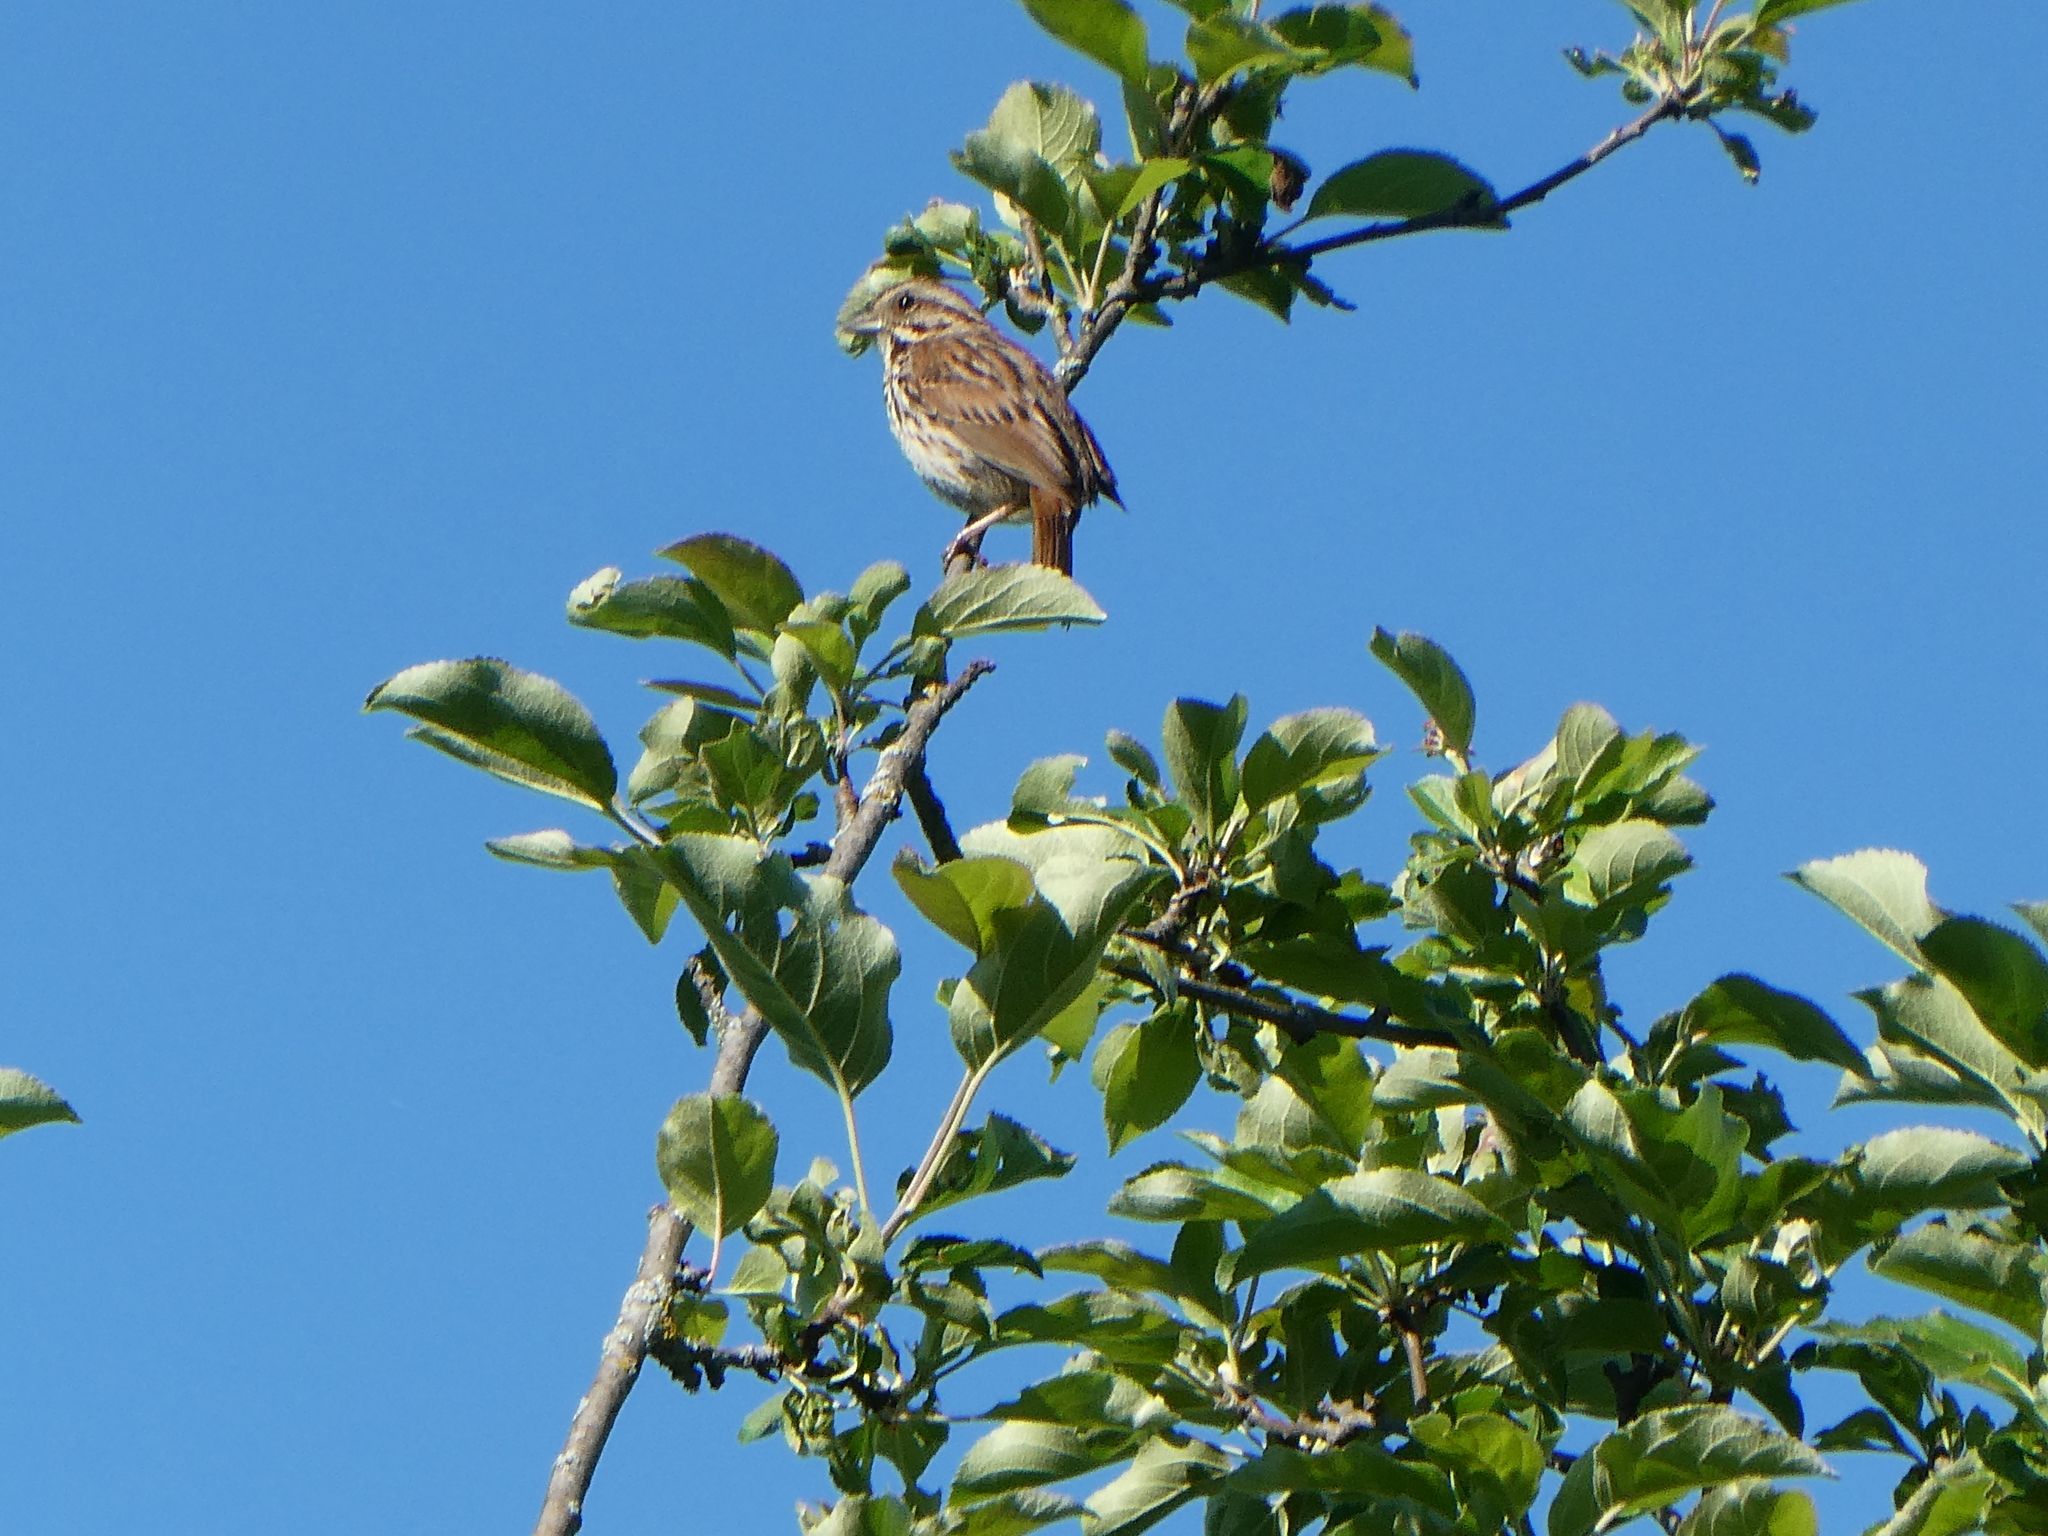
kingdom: Animalia
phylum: Chordata
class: Aves
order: Passeriformes
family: Passerellidae
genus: Melospiza
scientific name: Melospiza melodia
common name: Song sparrow
